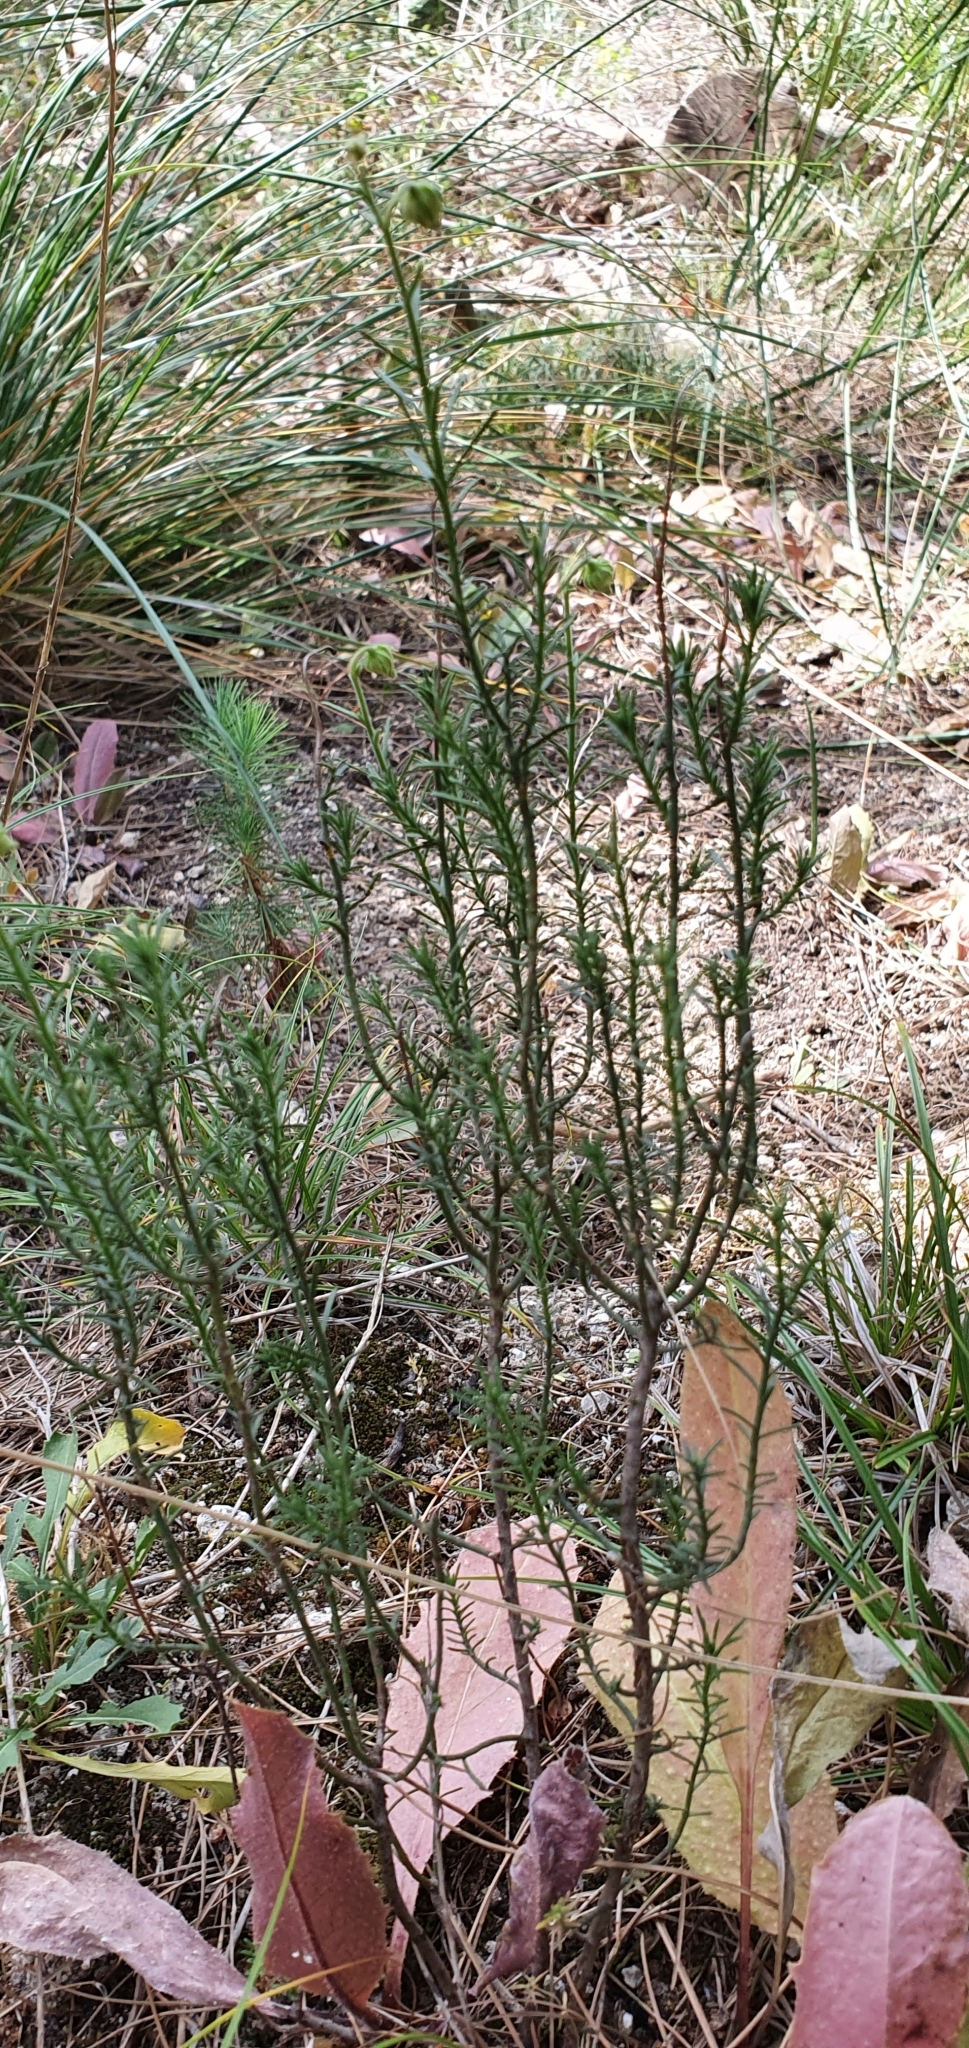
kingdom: Plantae
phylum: Tracheophyta
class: Magnoliopsida
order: Malvales
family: Cistaceae
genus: Fumana
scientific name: Fumana scoparia
